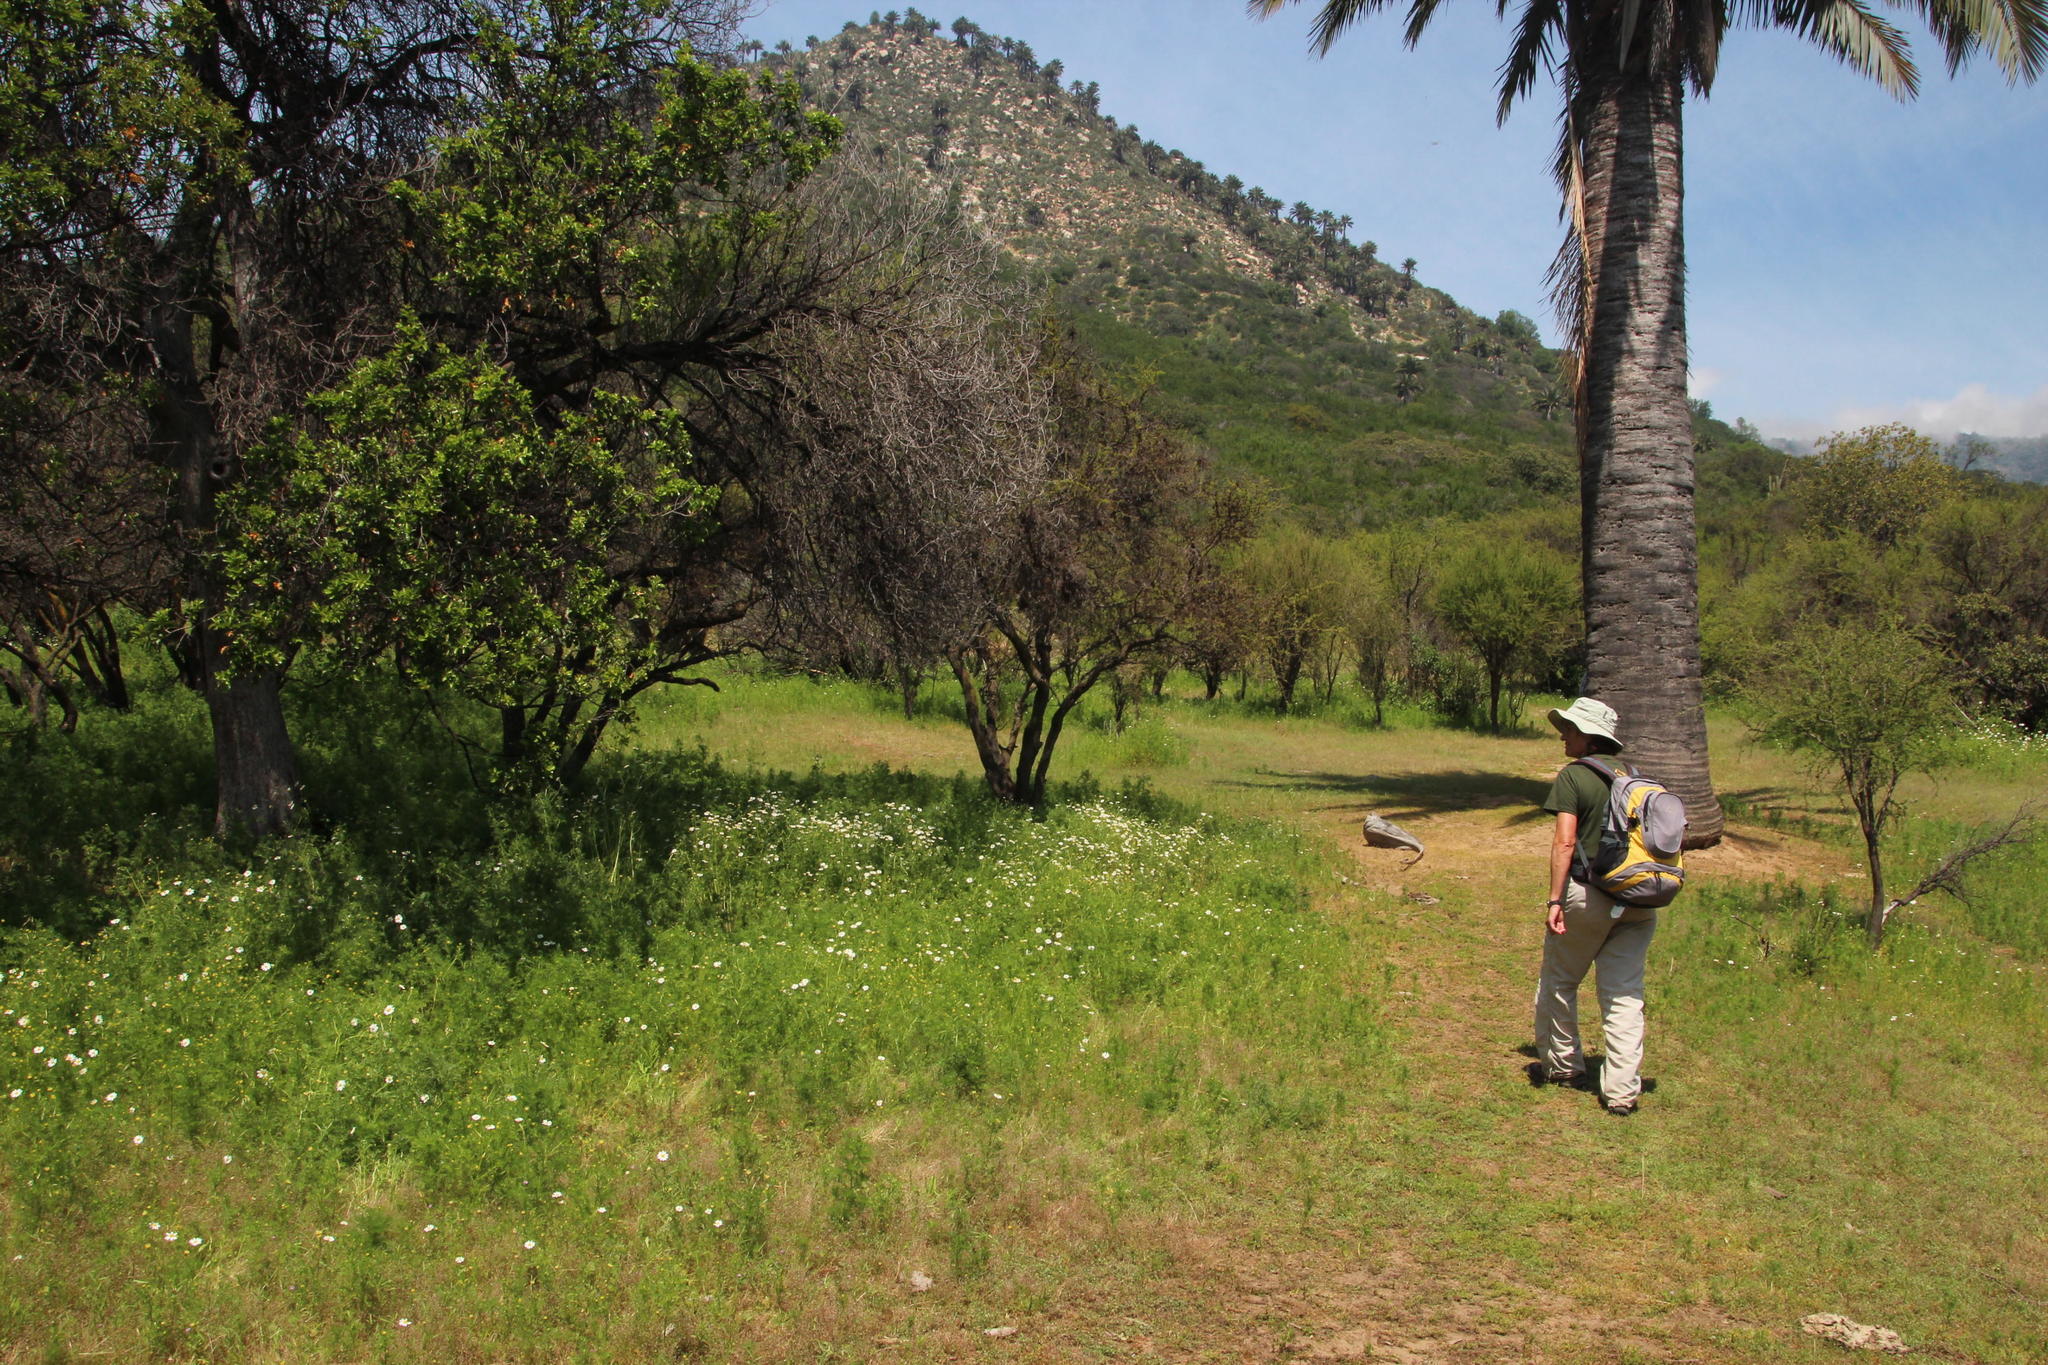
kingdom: Plantae
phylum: Tracheophyta
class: Liliopsida
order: Arecales
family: Arecaceae
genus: Jubaea
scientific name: Jubaea chilensis
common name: Coquito palm
